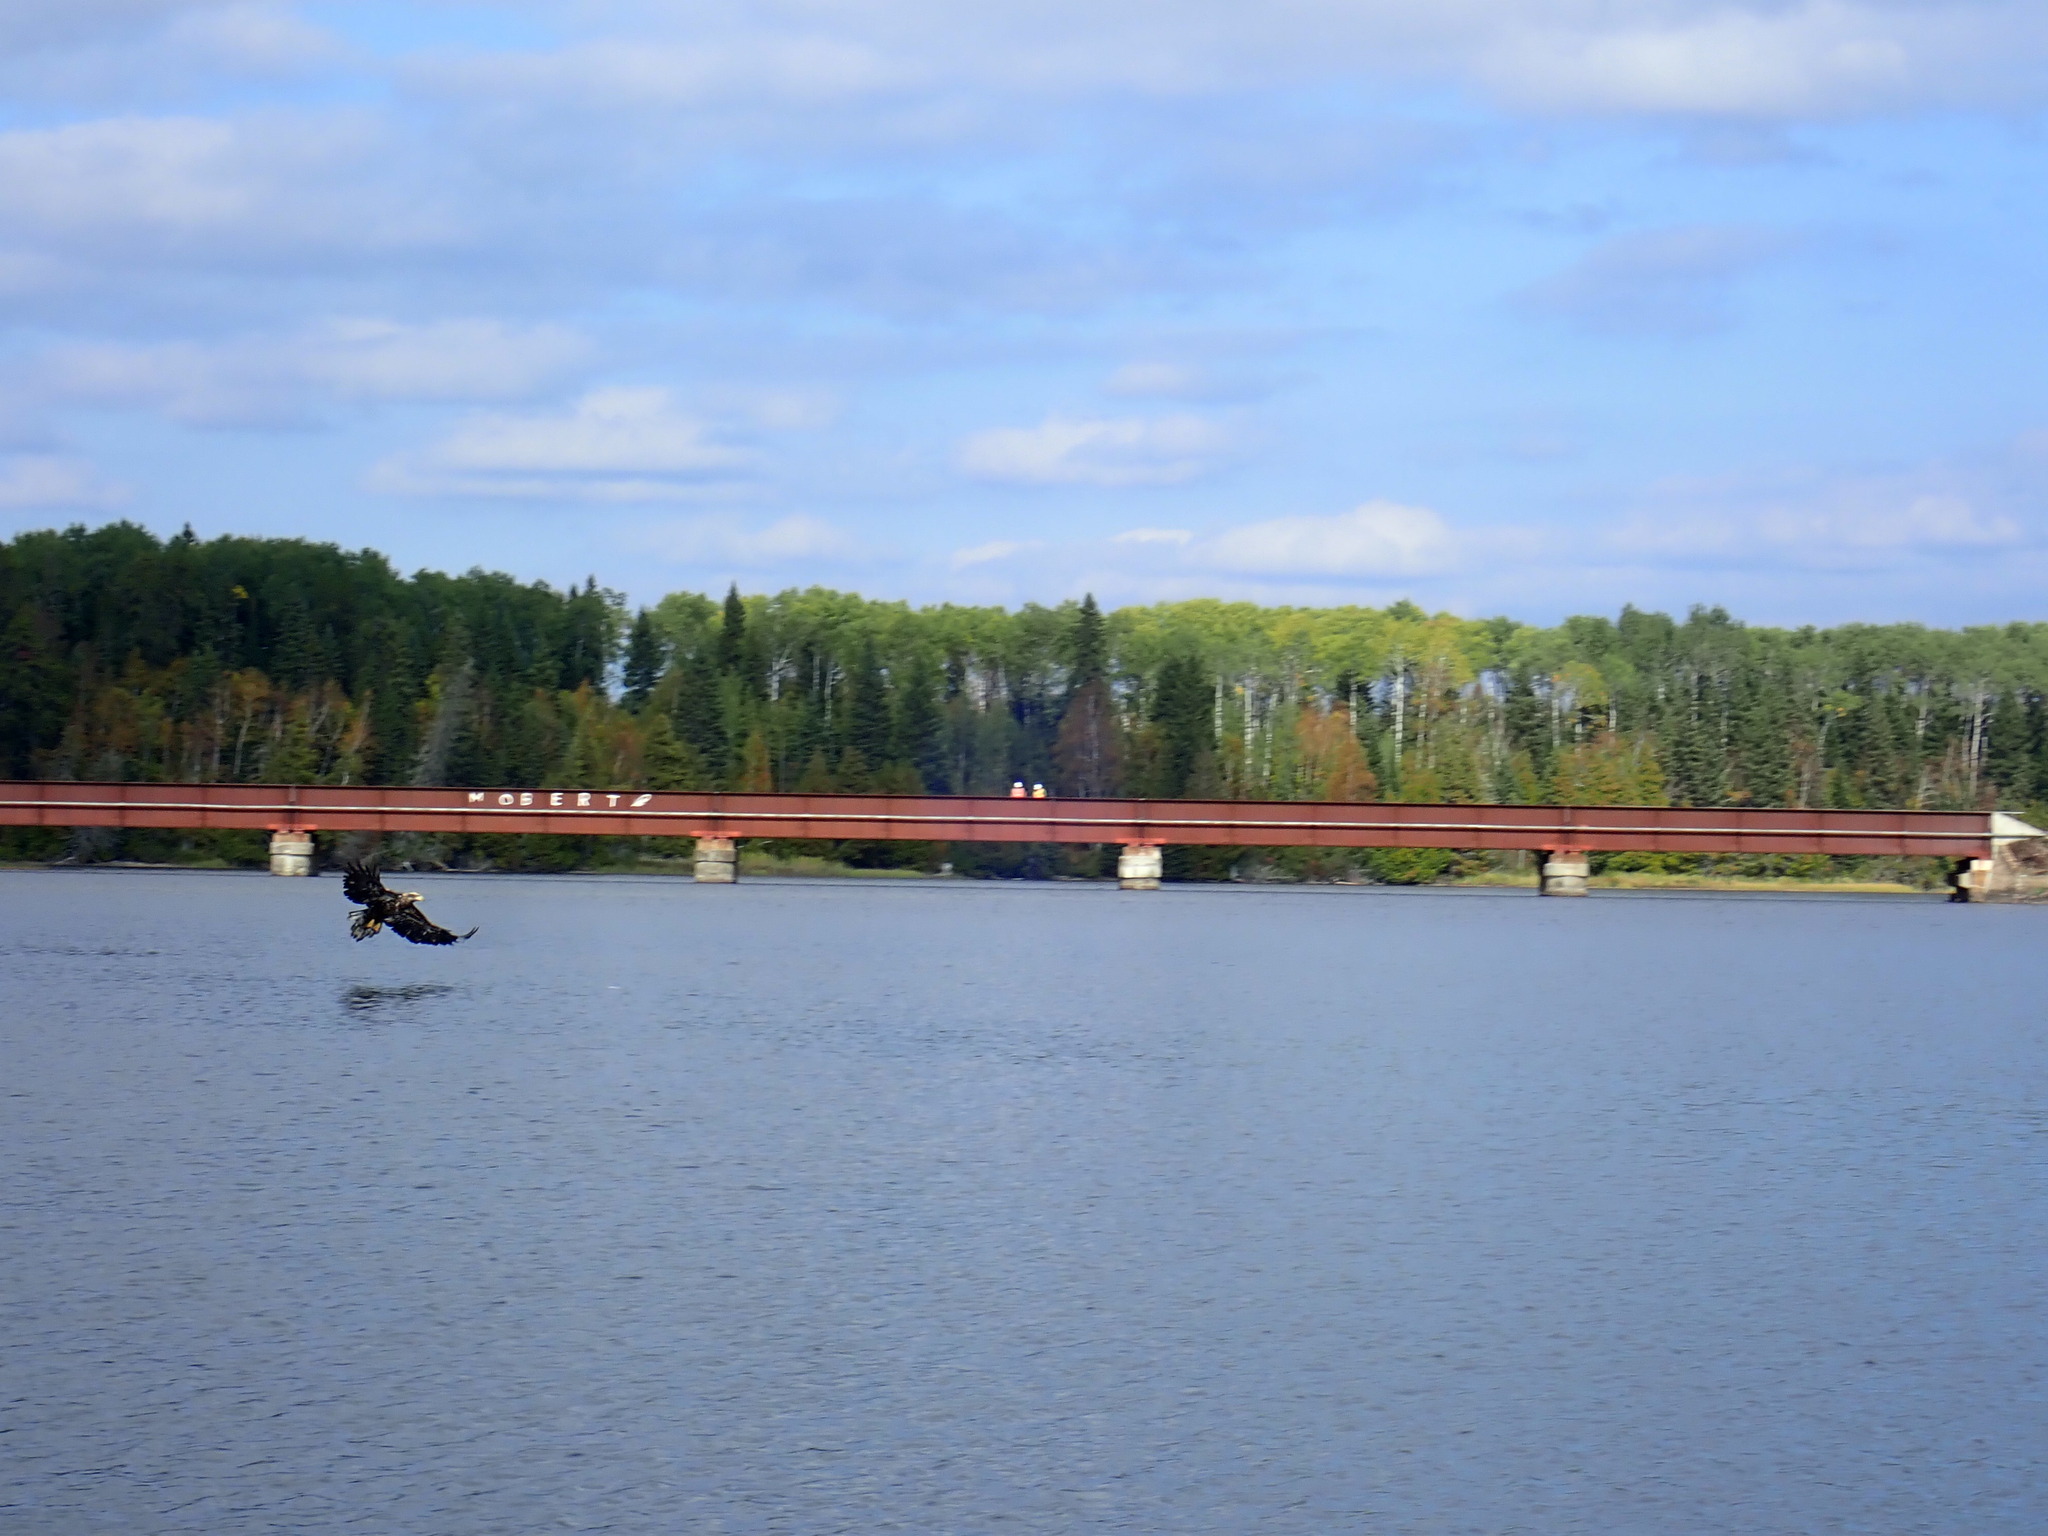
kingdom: Animalia
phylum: Chordata
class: Aves
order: Accipitriformes
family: Accipitridae
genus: Haliaeetus
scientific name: Haliaeetus leucocephalus
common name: Bald eagle
